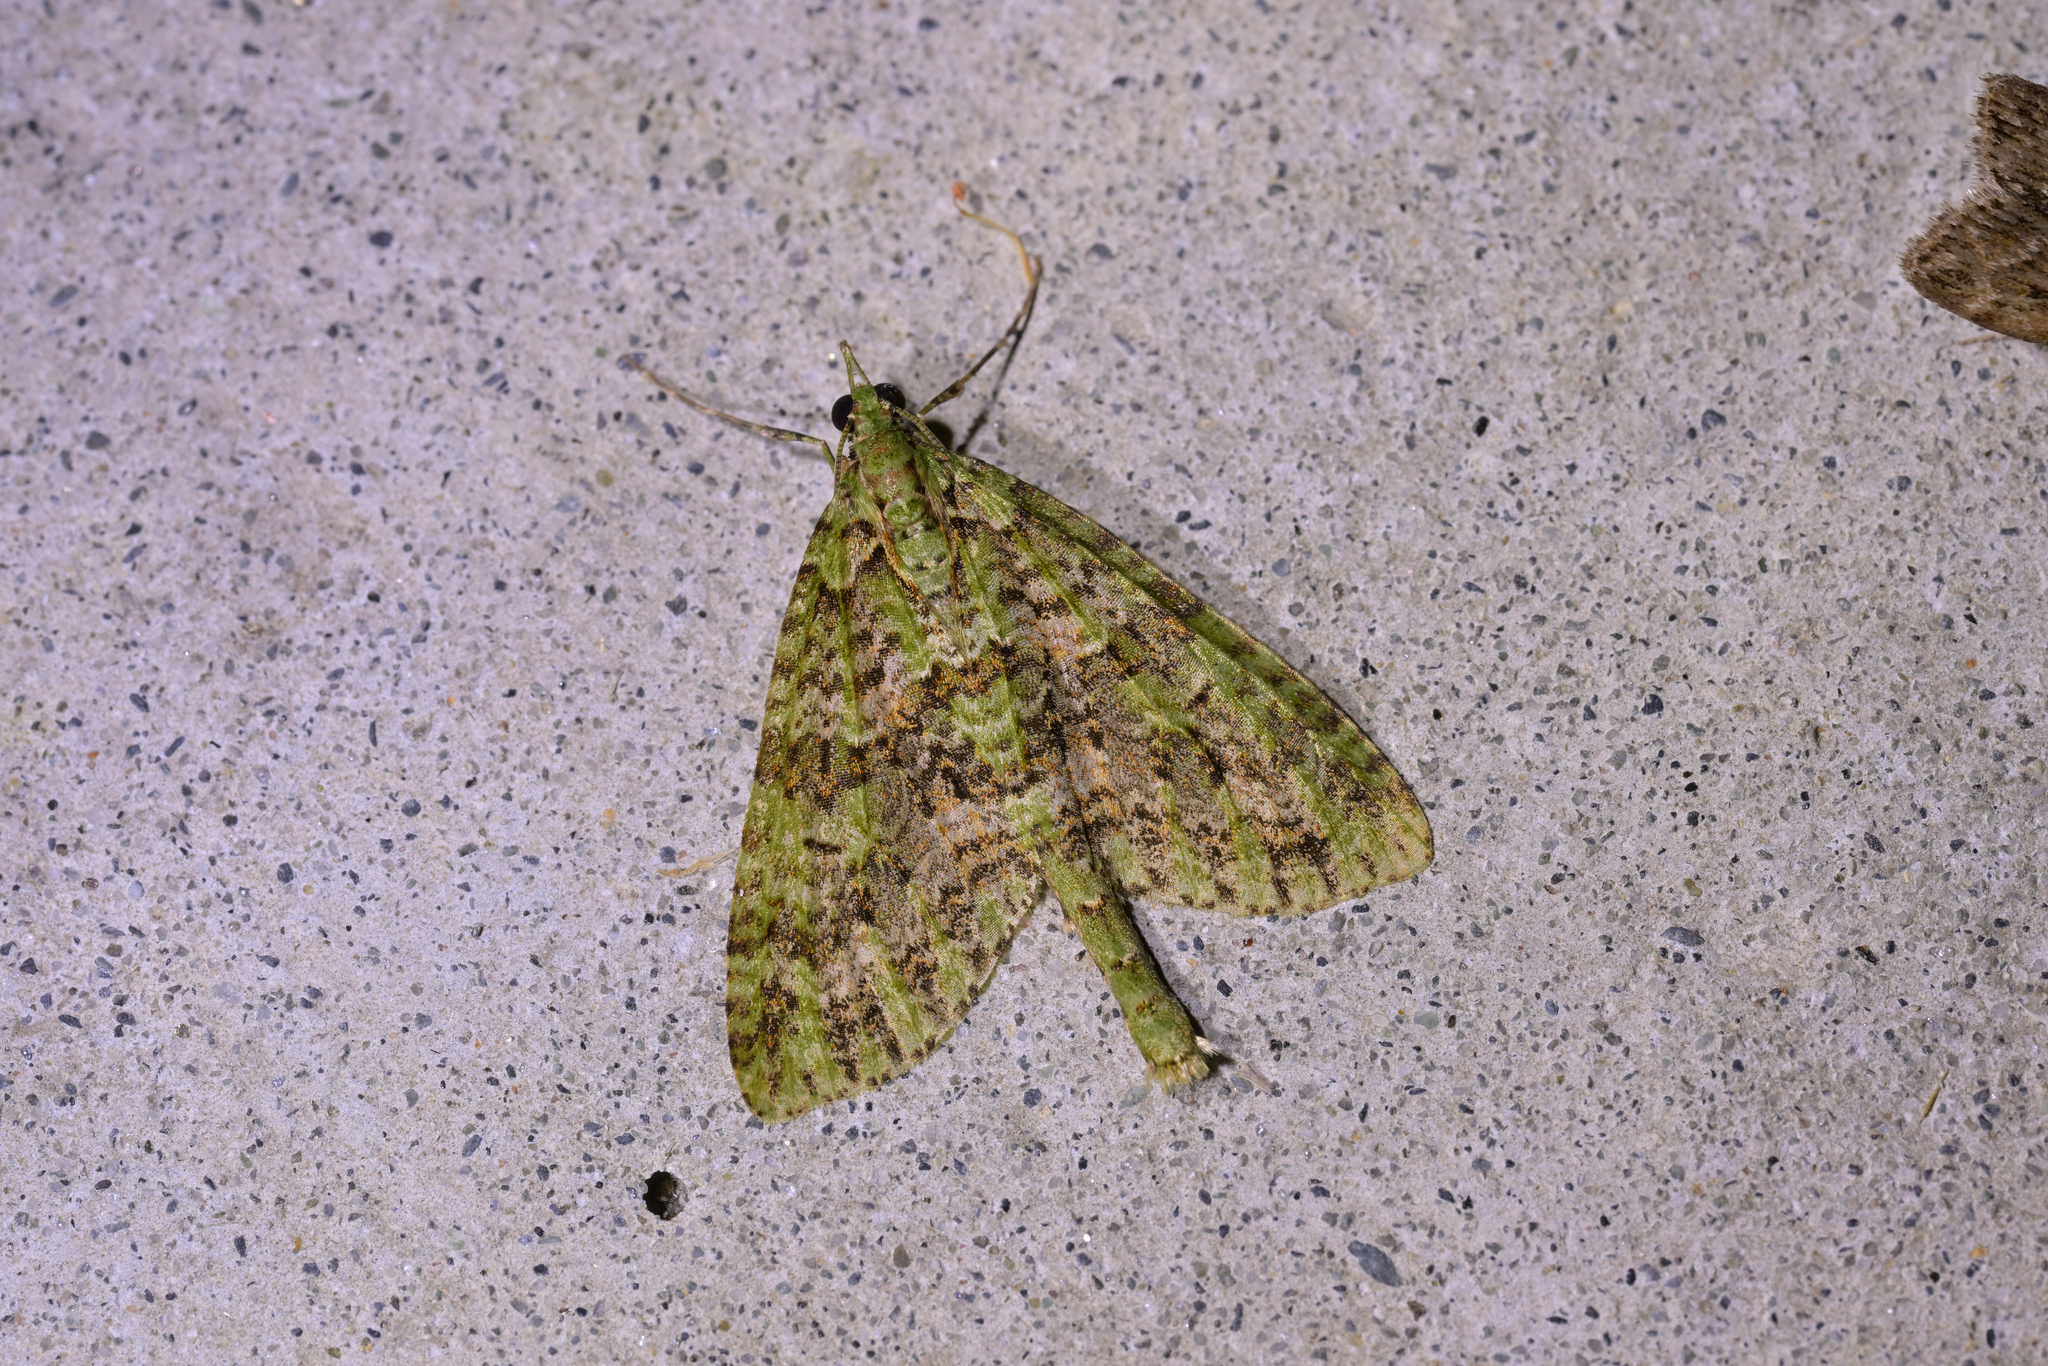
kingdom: Animalia
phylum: Arthropoda
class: Insecta
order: Lepidoptera
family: Geometridae
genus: Tatosoma
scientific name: Tatosoma tipulata
